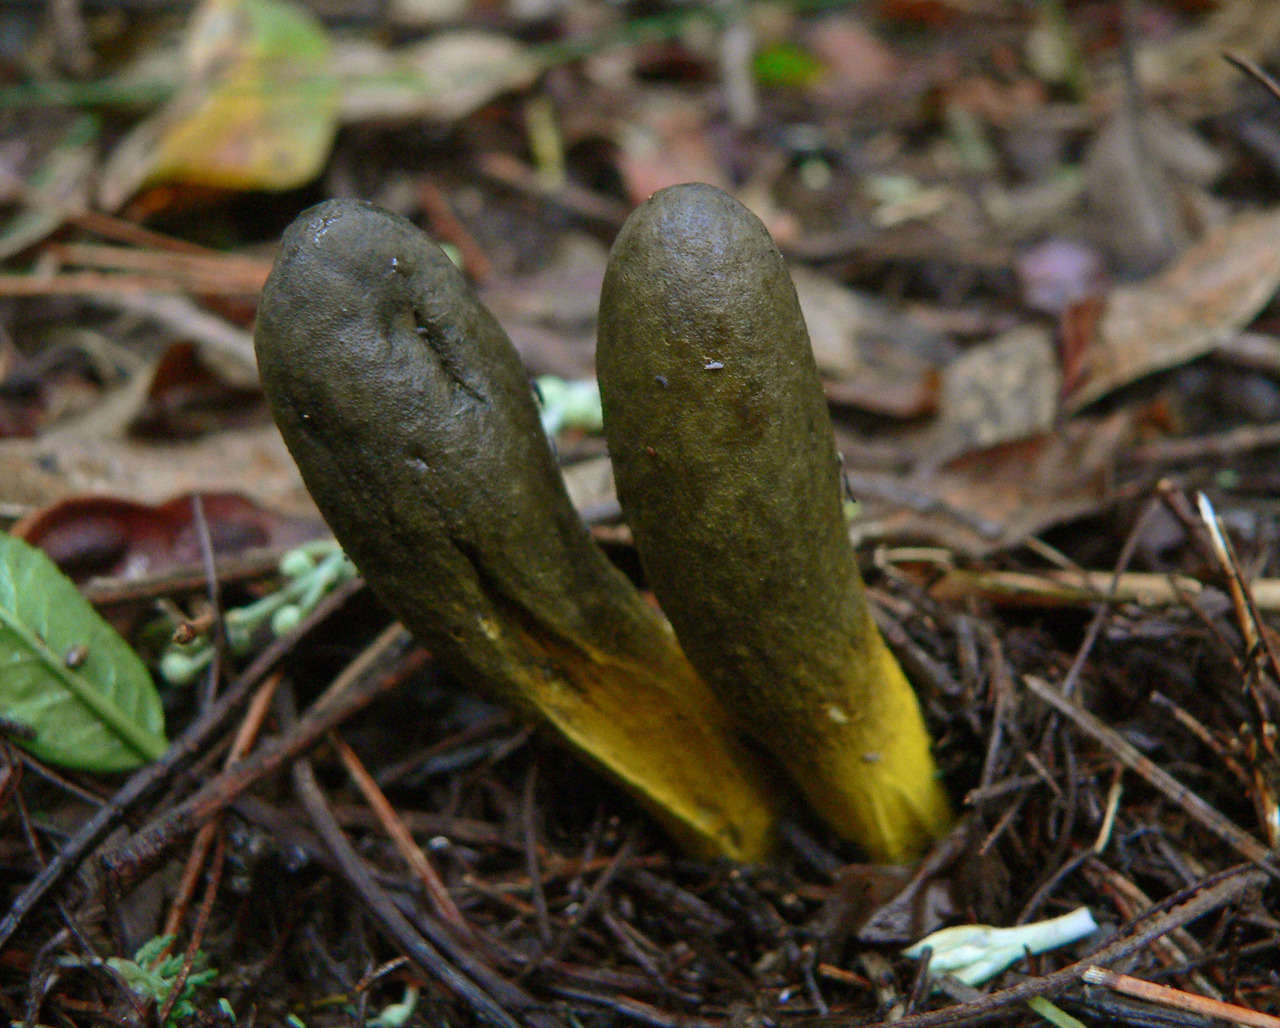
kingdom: Fungi
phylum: Ascomycota
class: Sordariomycetes
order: Hypocreales
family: Clavicipitaceae
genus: Drechmeria
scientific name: Drechmeria gunnii
